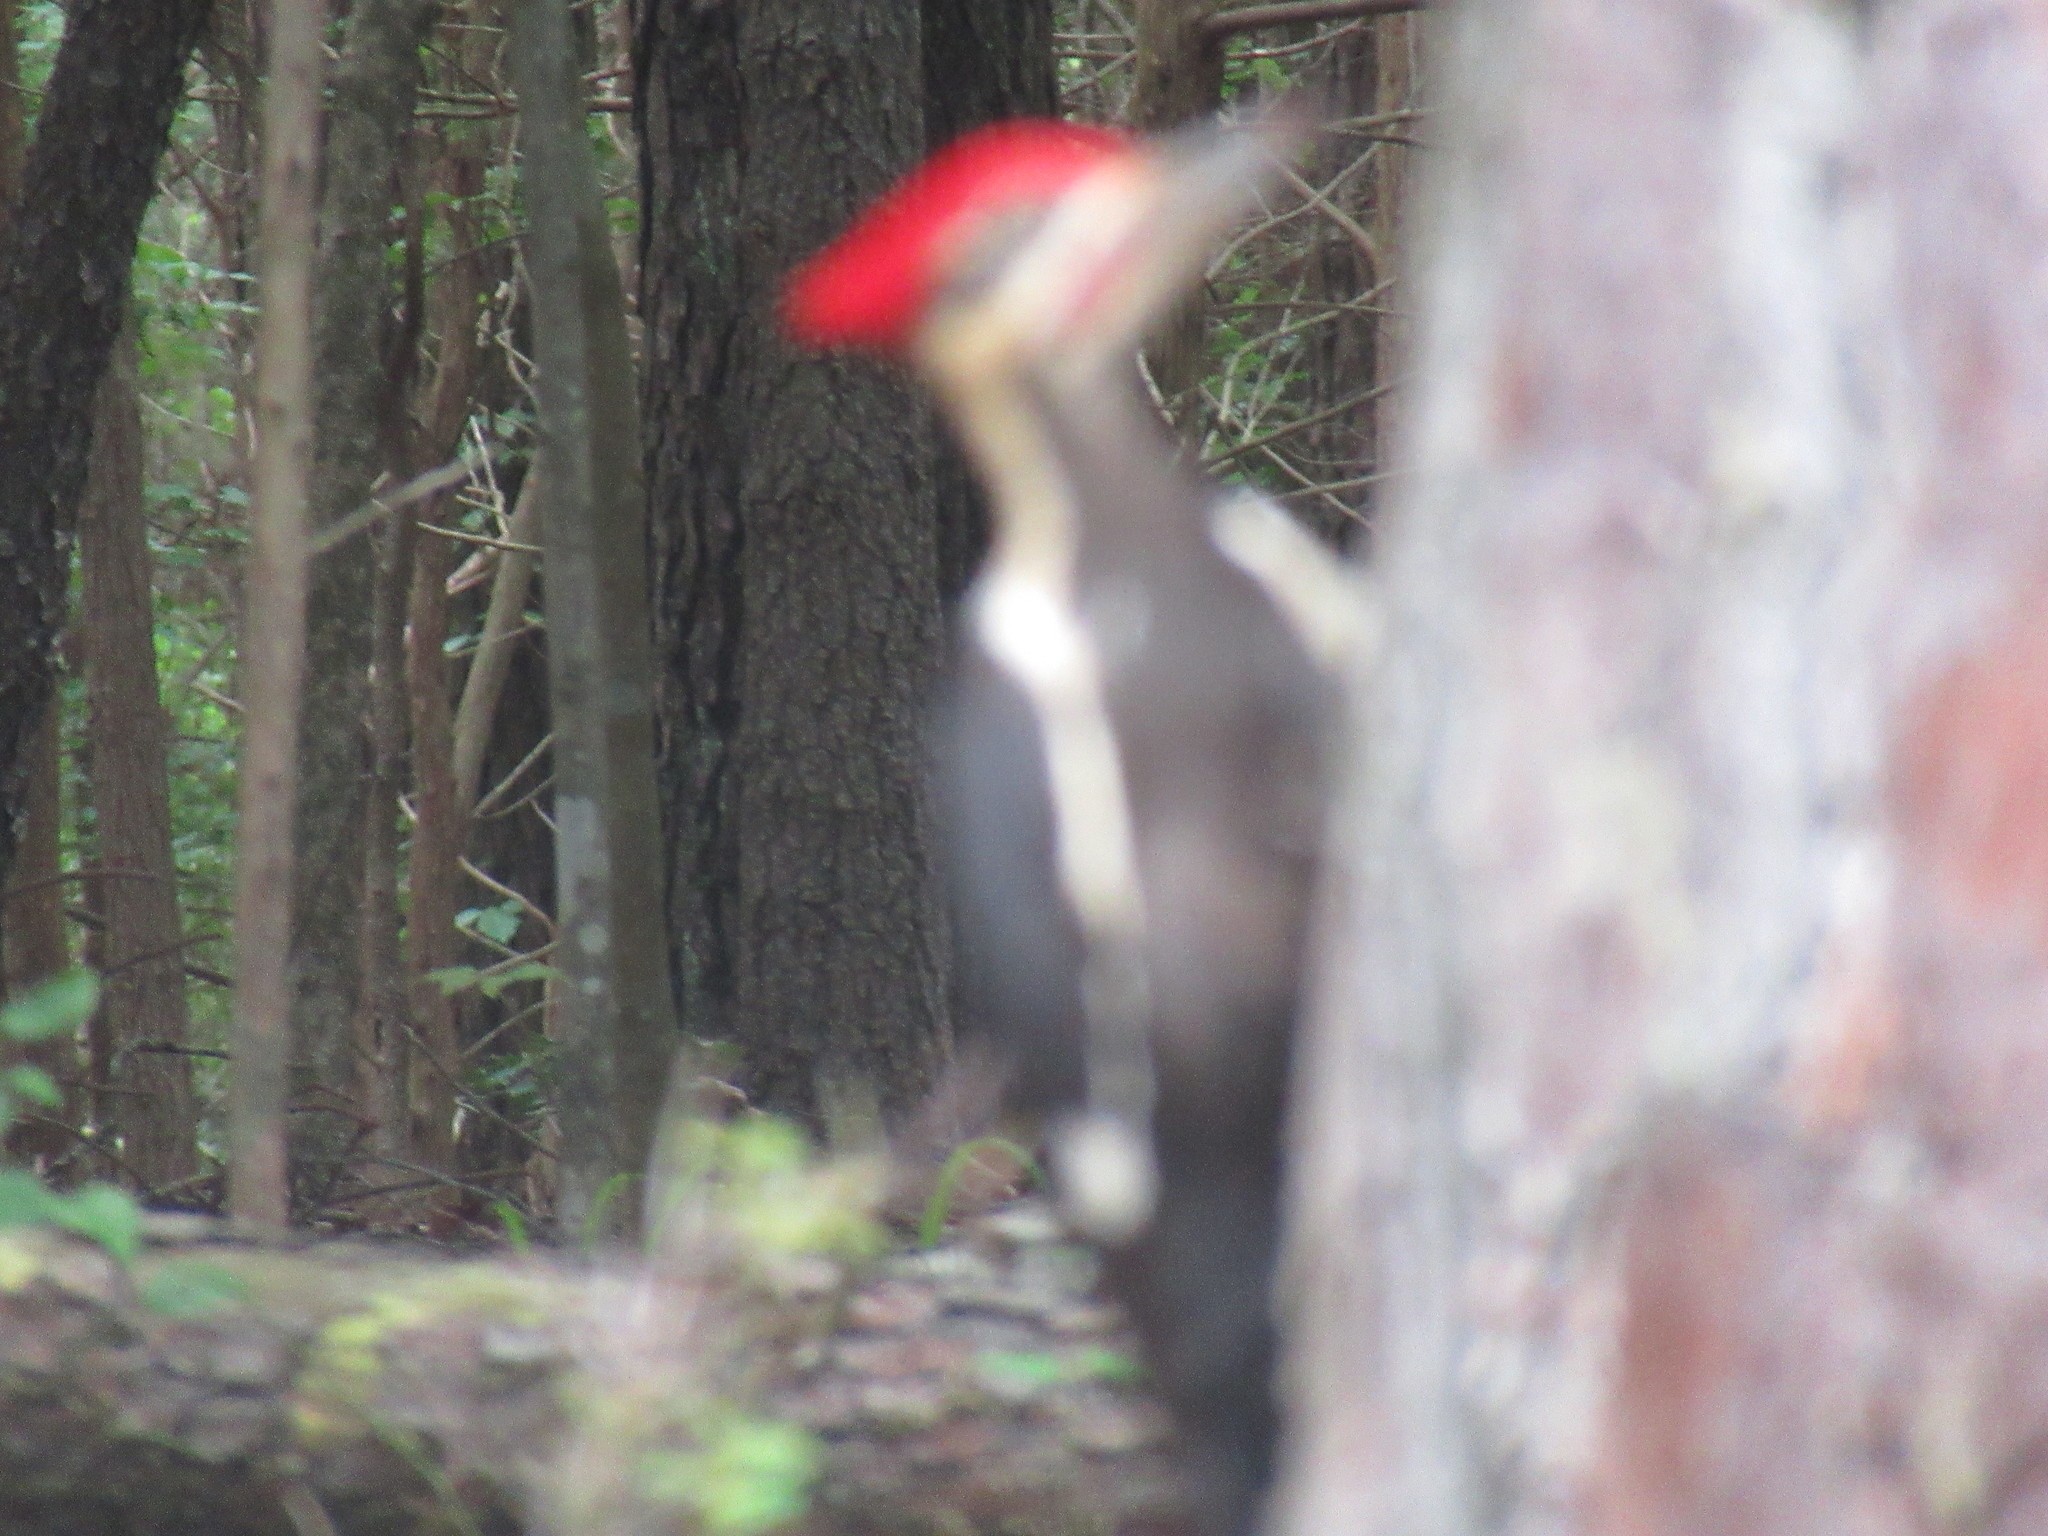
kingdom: Animalia
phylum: Chordata
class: Aves
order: Piciformes
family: Picidae
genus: Dryocopus
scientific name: Dryocopus pileatus
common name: Pileated woodpecker
